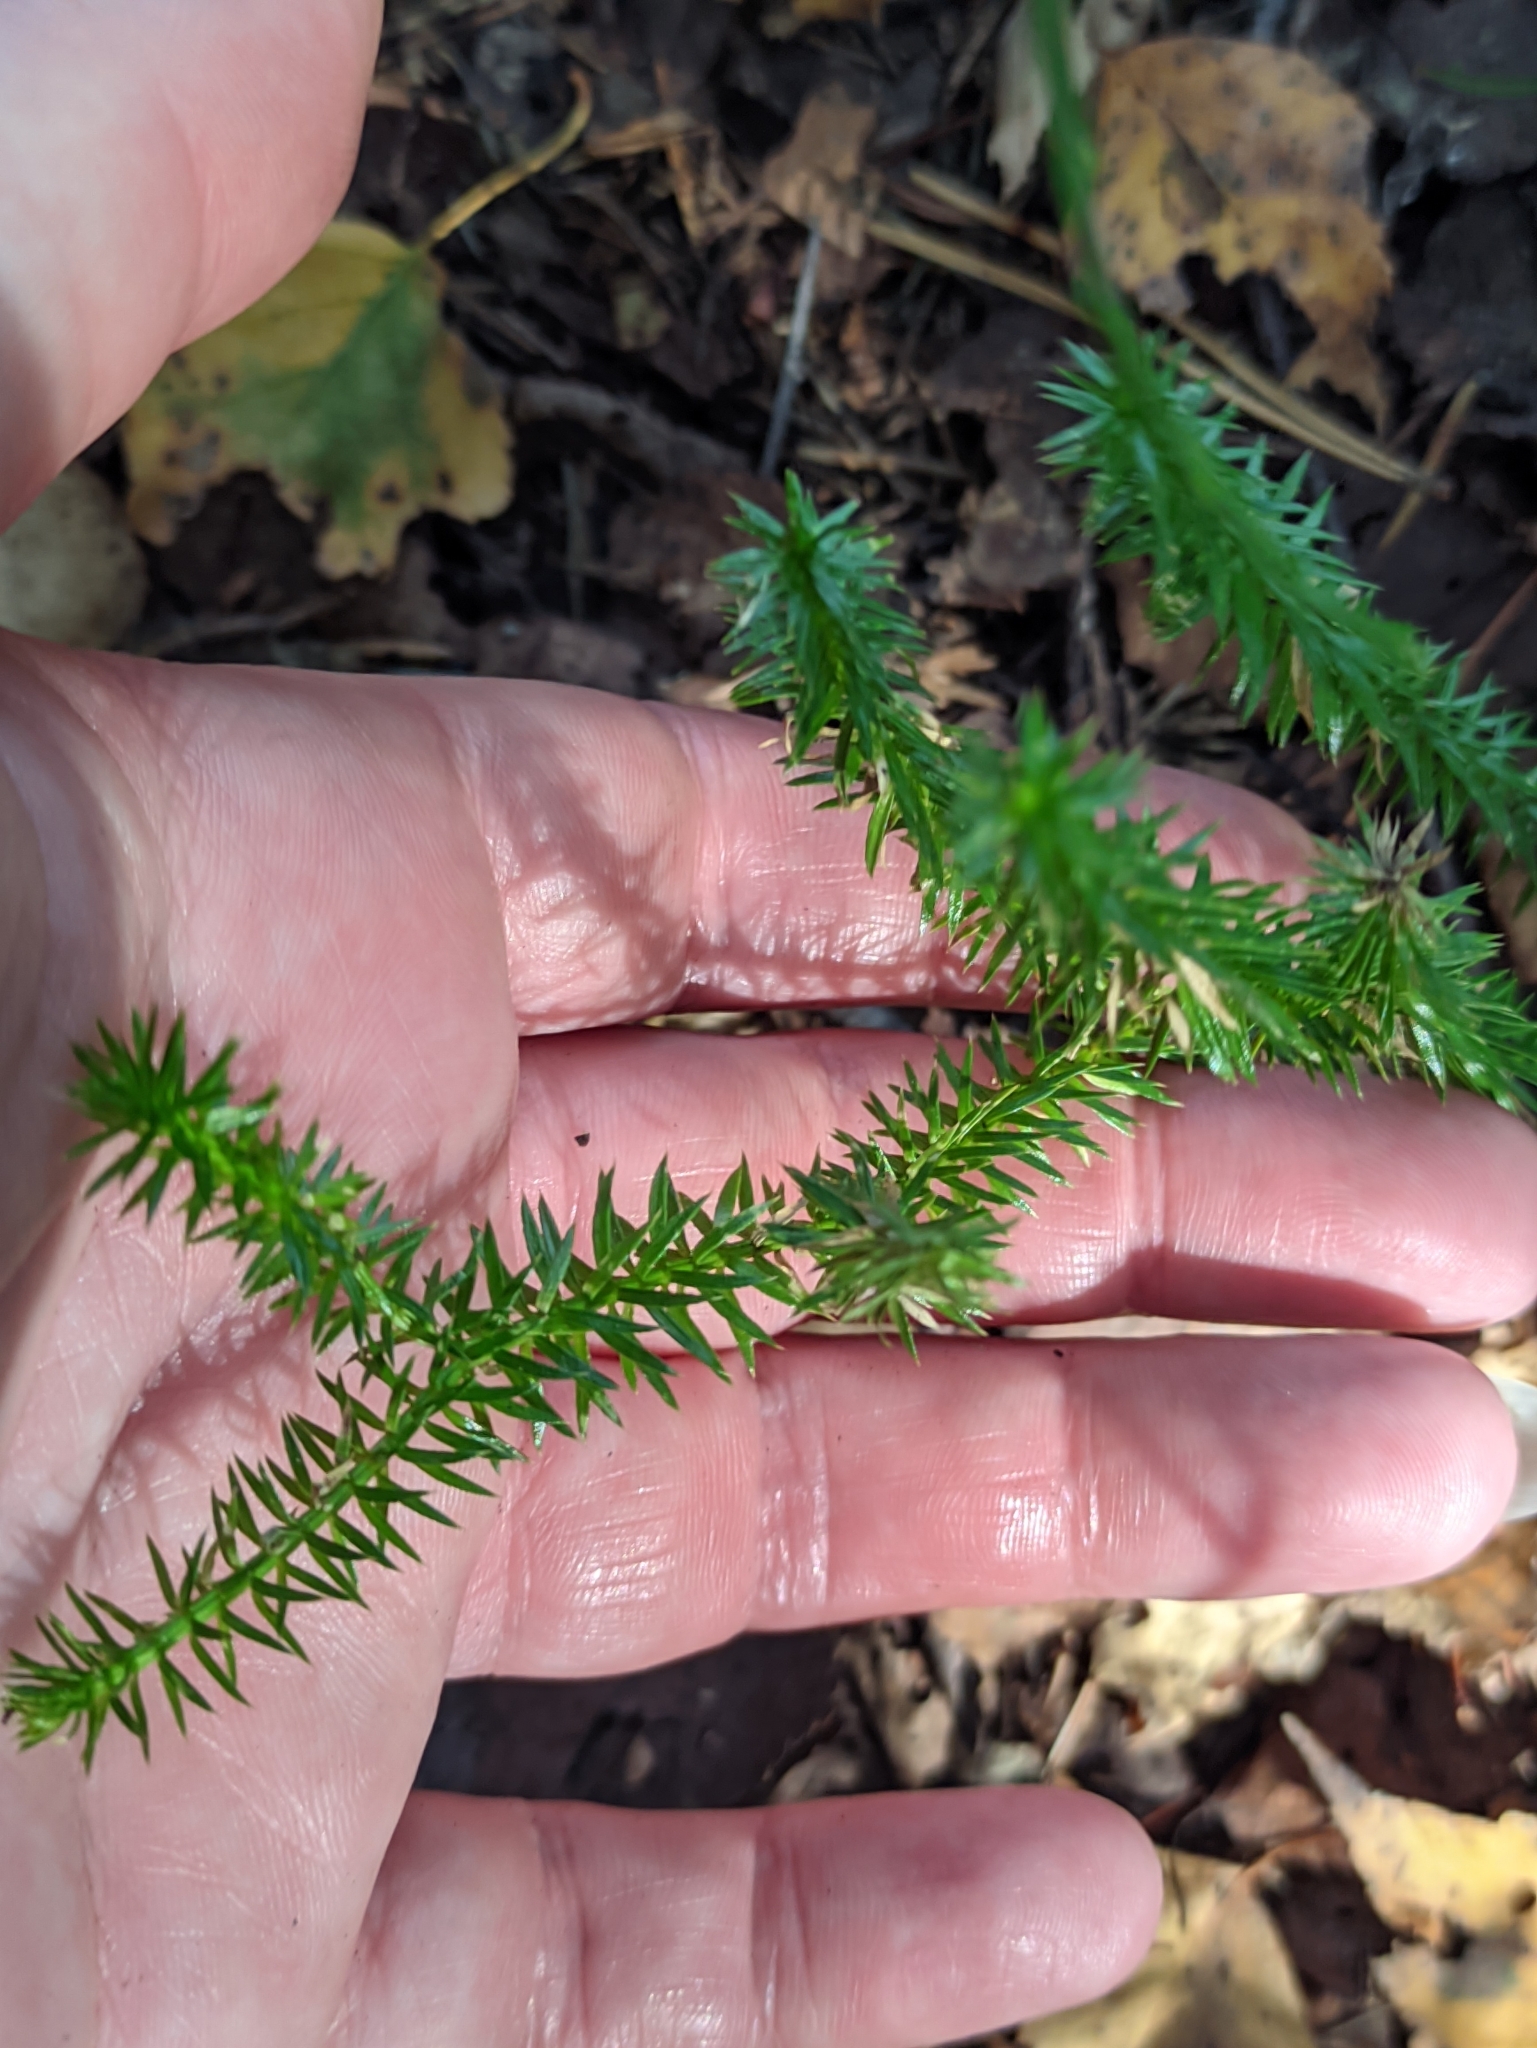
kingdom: Plantae
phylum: Tracheophyta
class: Lycopodiopsida
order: Lycopodiales
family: Lycopodiaceae
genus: Spinulum
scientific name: Spinulum annotinum
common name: Interrupted club-moss
